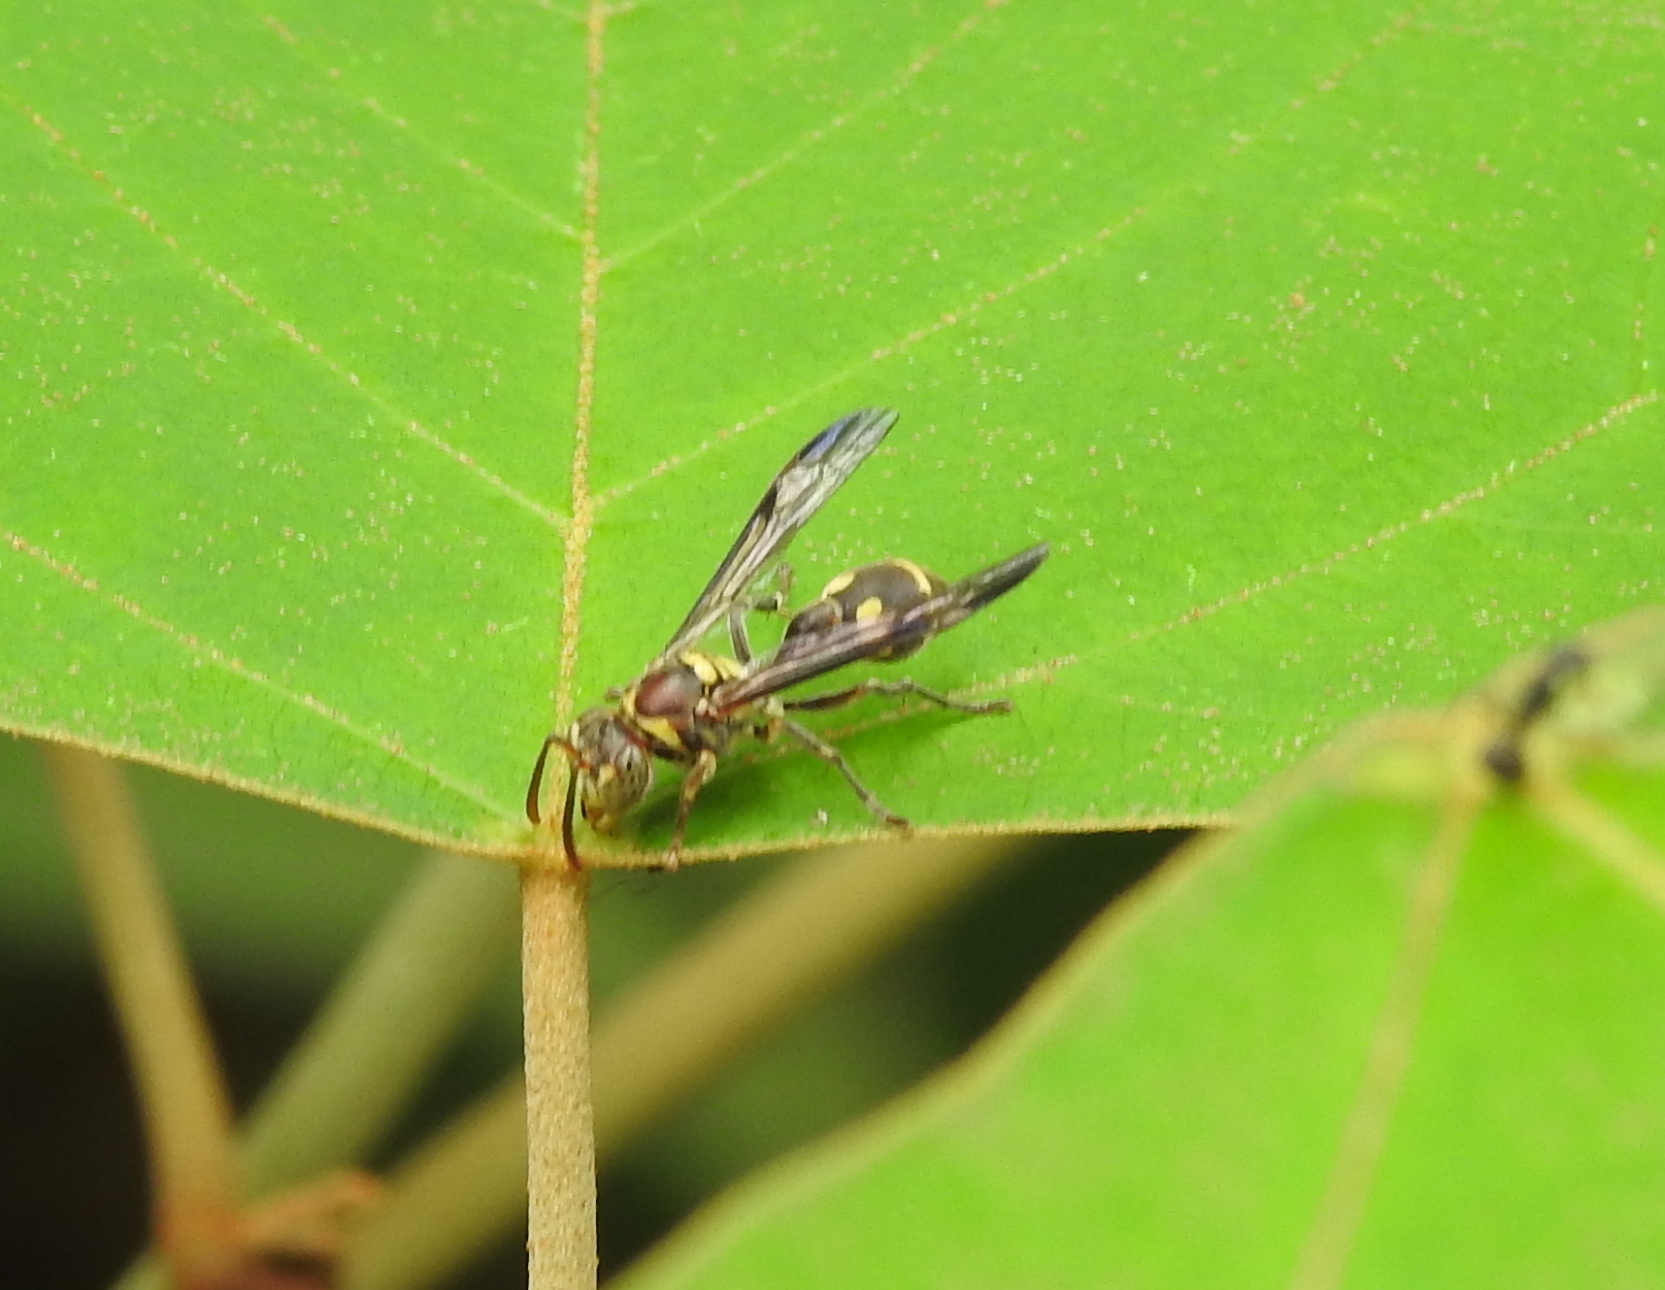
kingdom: Animalia
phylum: Arthropoda
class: Insecta
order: Hymenoptera
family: Vespidae
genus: Ropalidia
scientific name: Ropalidia stigma
